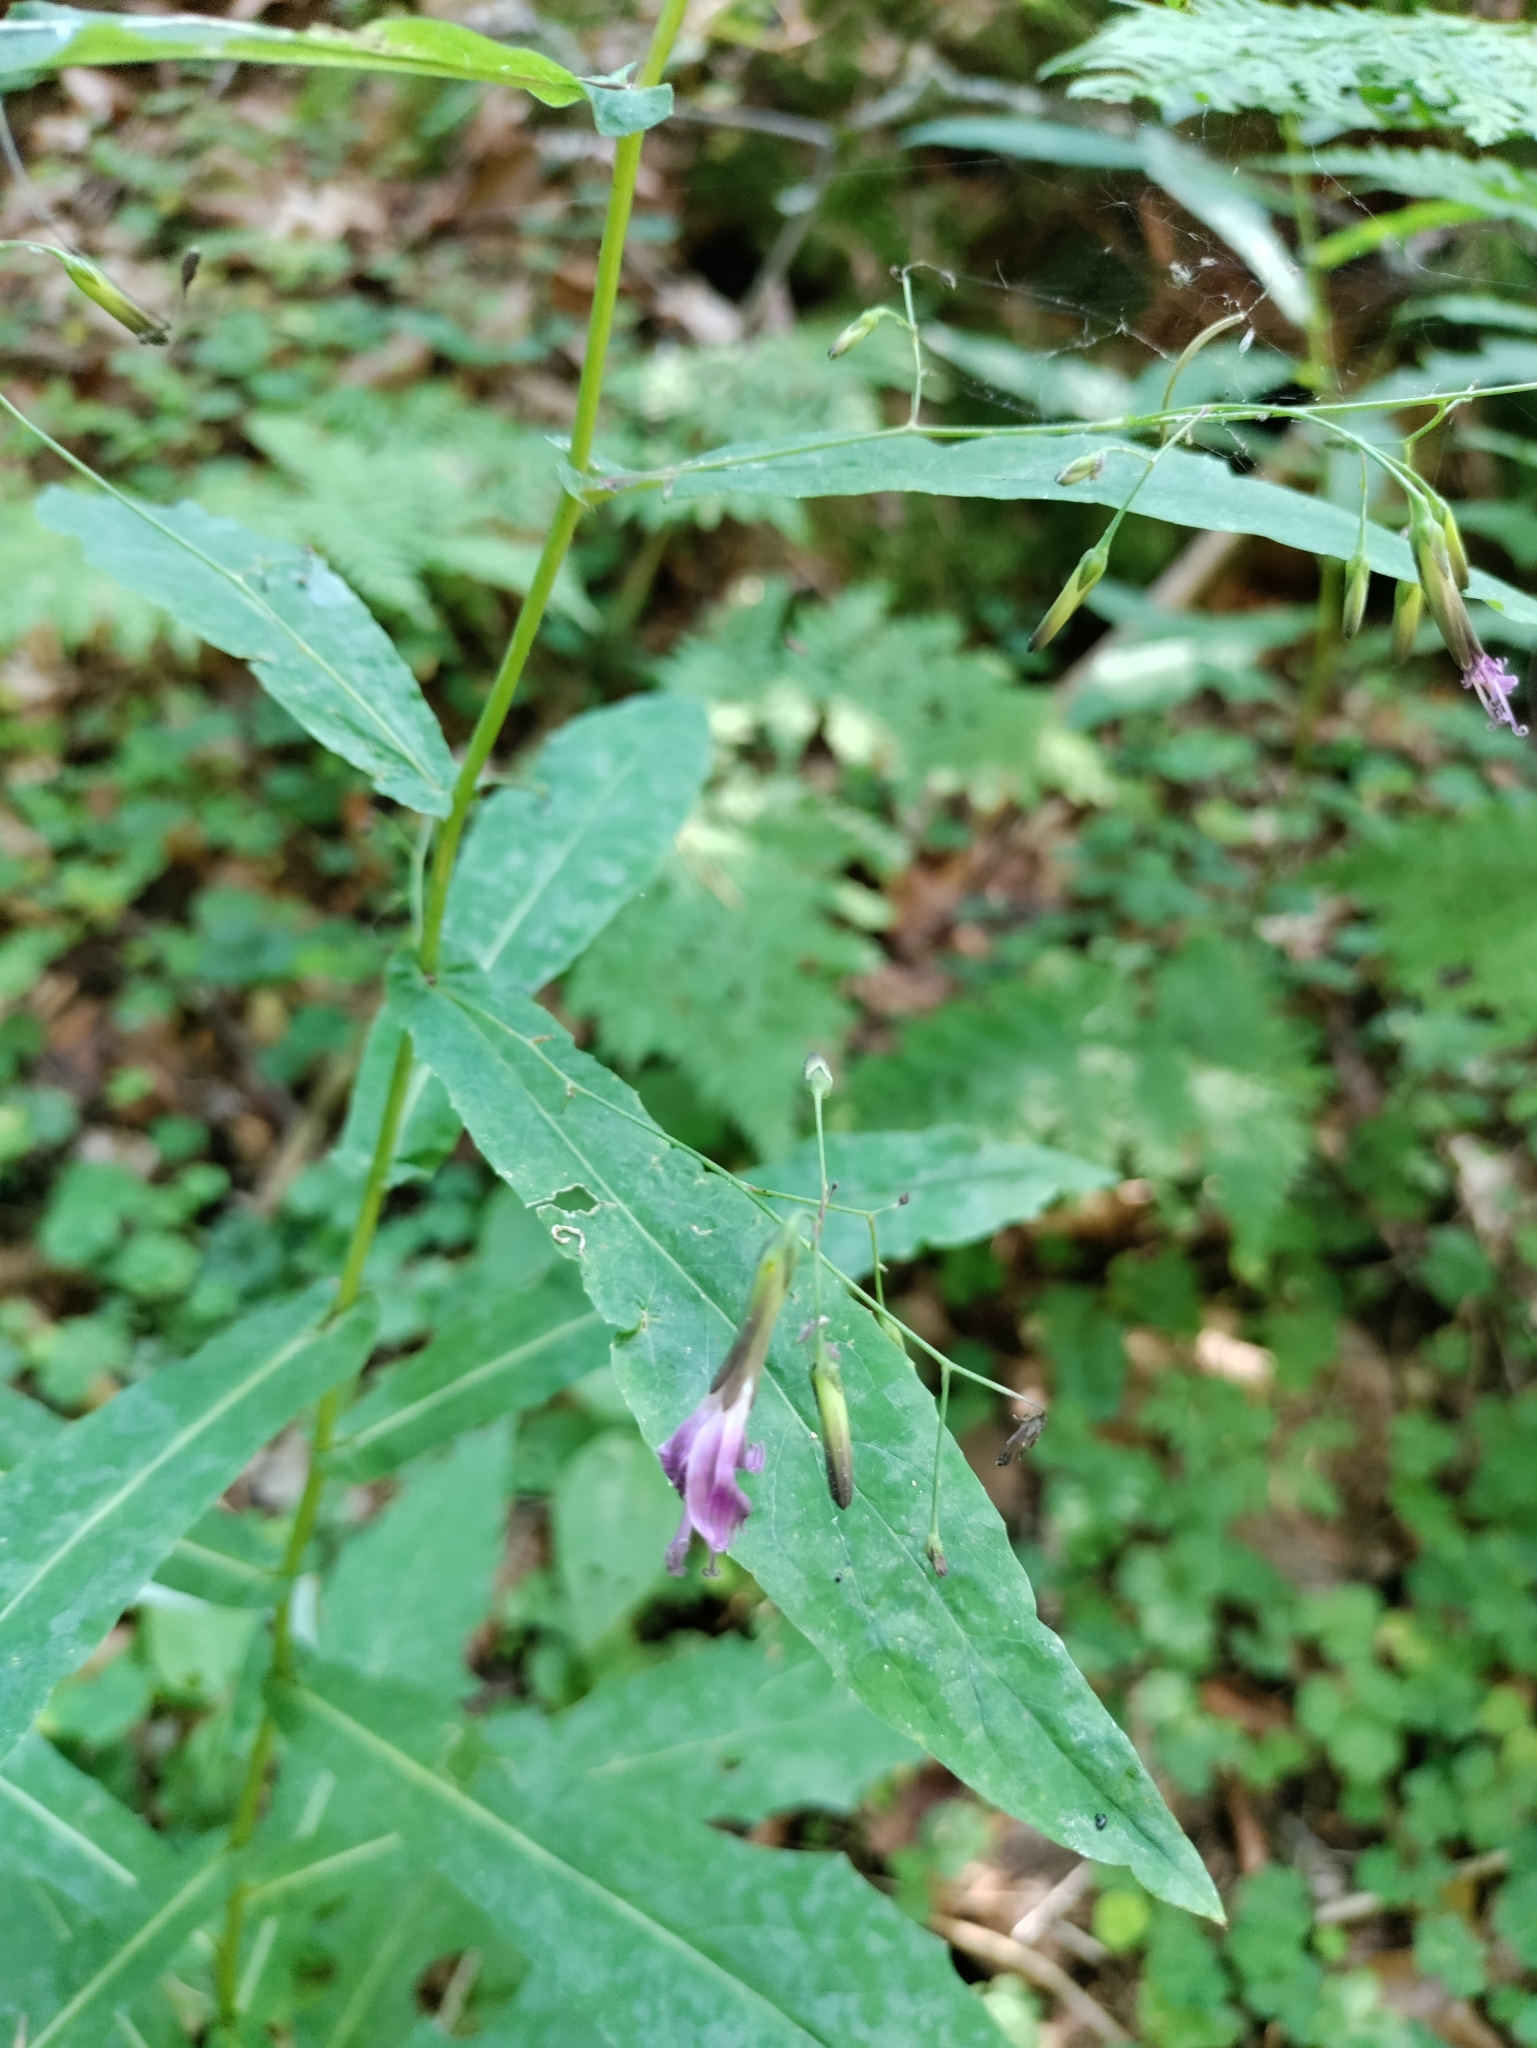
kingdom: Plantae
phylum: Tracheophyta
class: Magnoliopsida
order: Asterales
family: Asteraceae
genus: Prenanthes
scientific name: Prenanthes purpurea
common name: Purple lettuce
